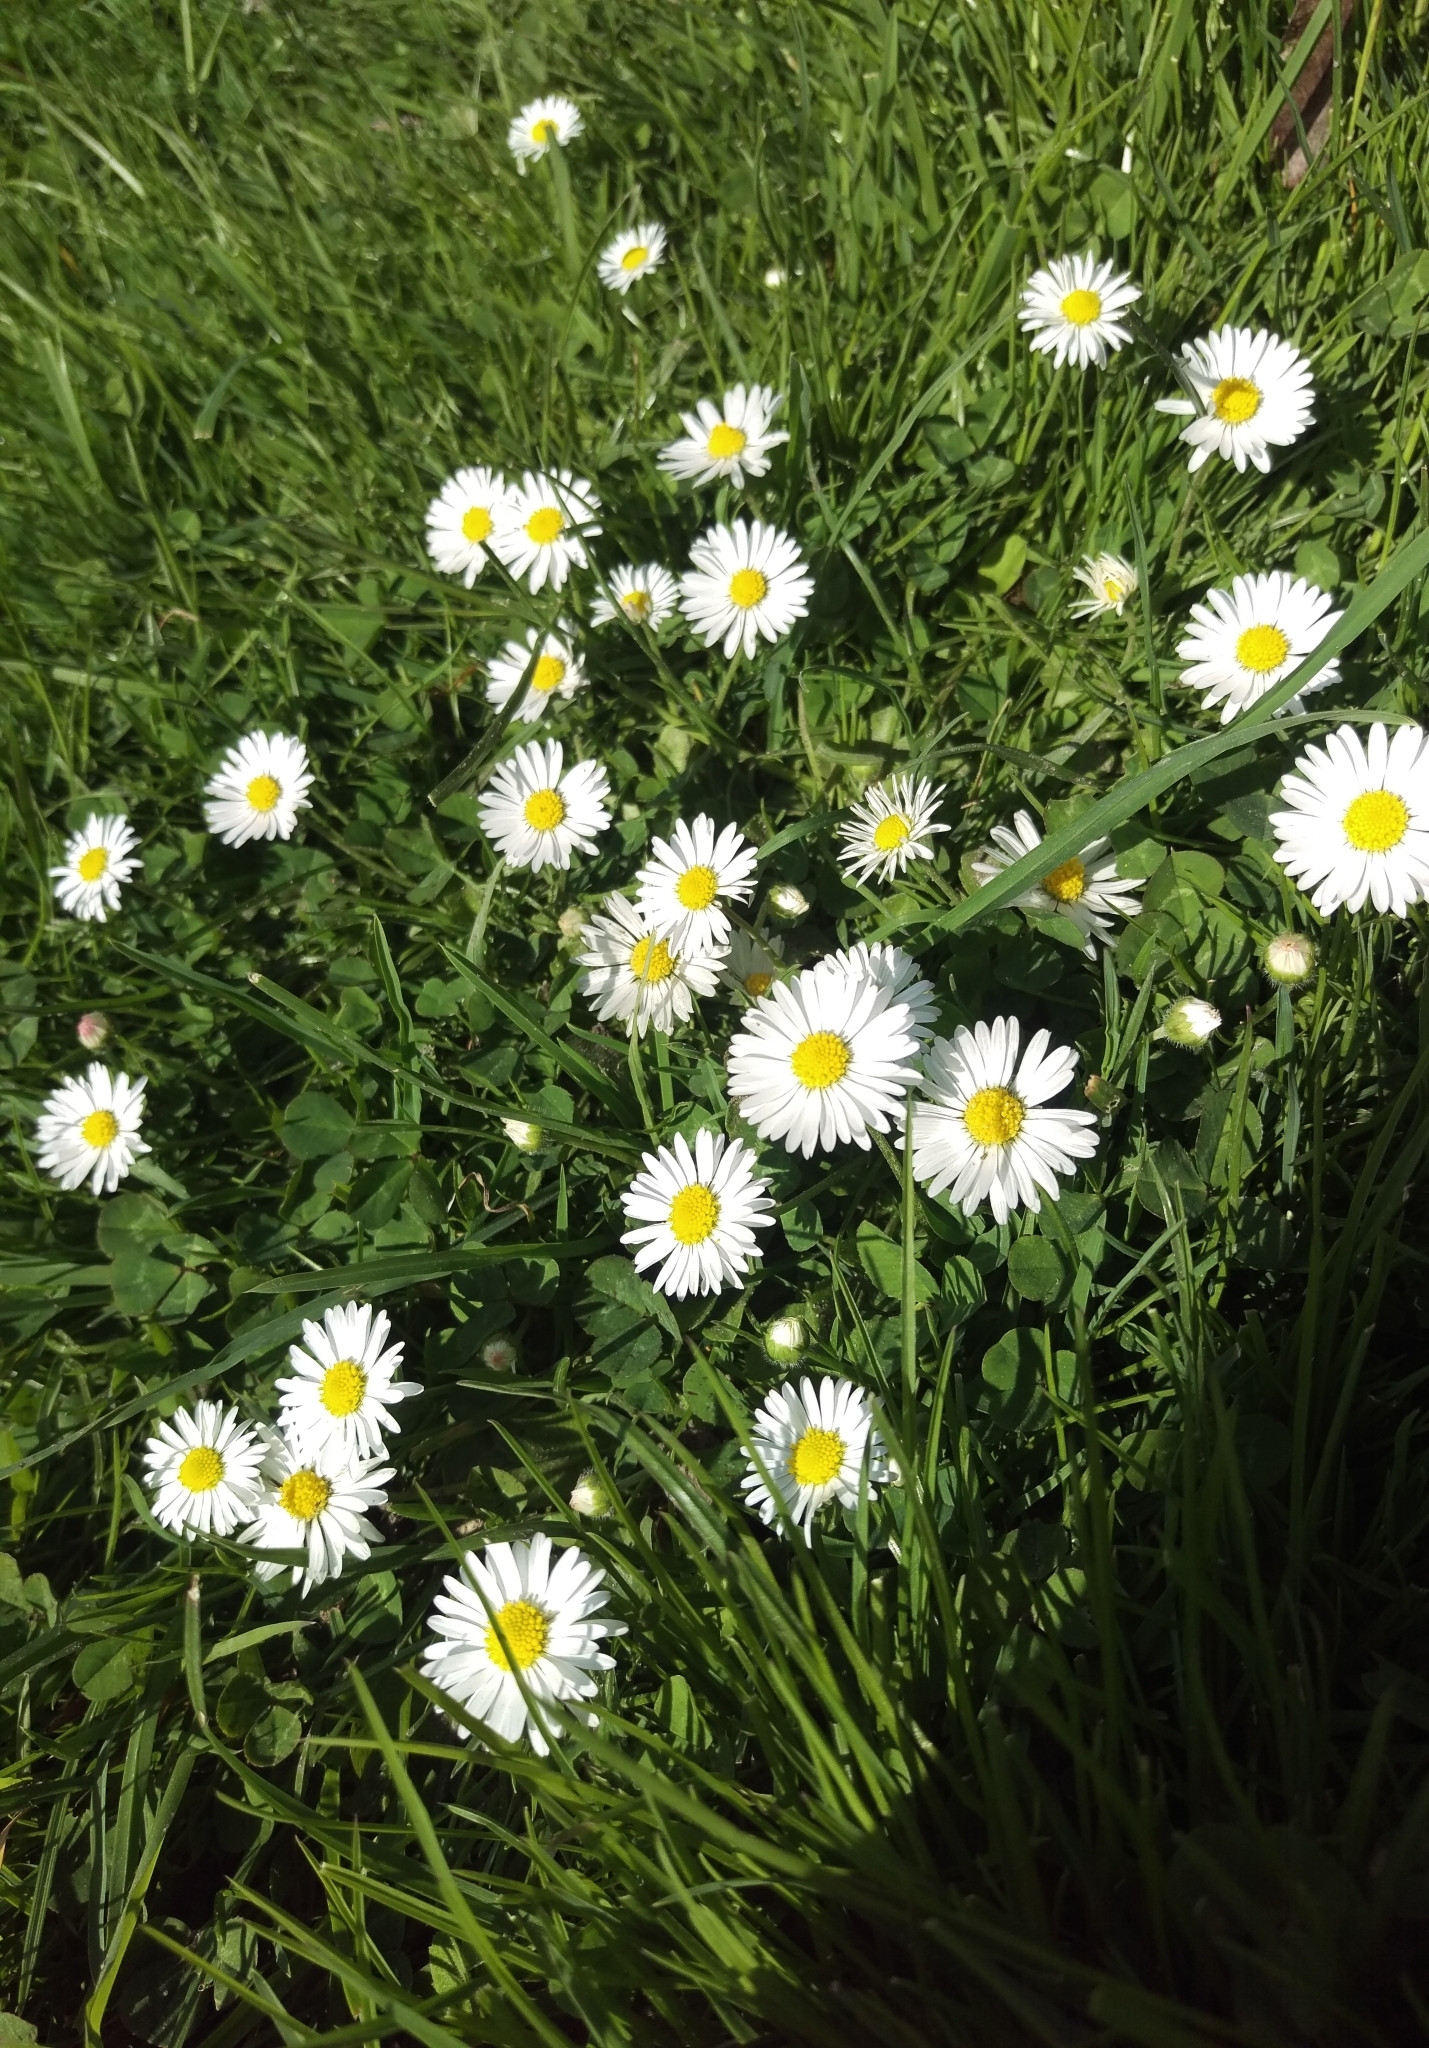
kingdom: Plantae
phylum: Tracheophyta
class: Magnoliopsida
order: Asterales
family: Asteraceae
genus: Bellis
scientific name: Bellis perennis
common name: Lawndaisy
